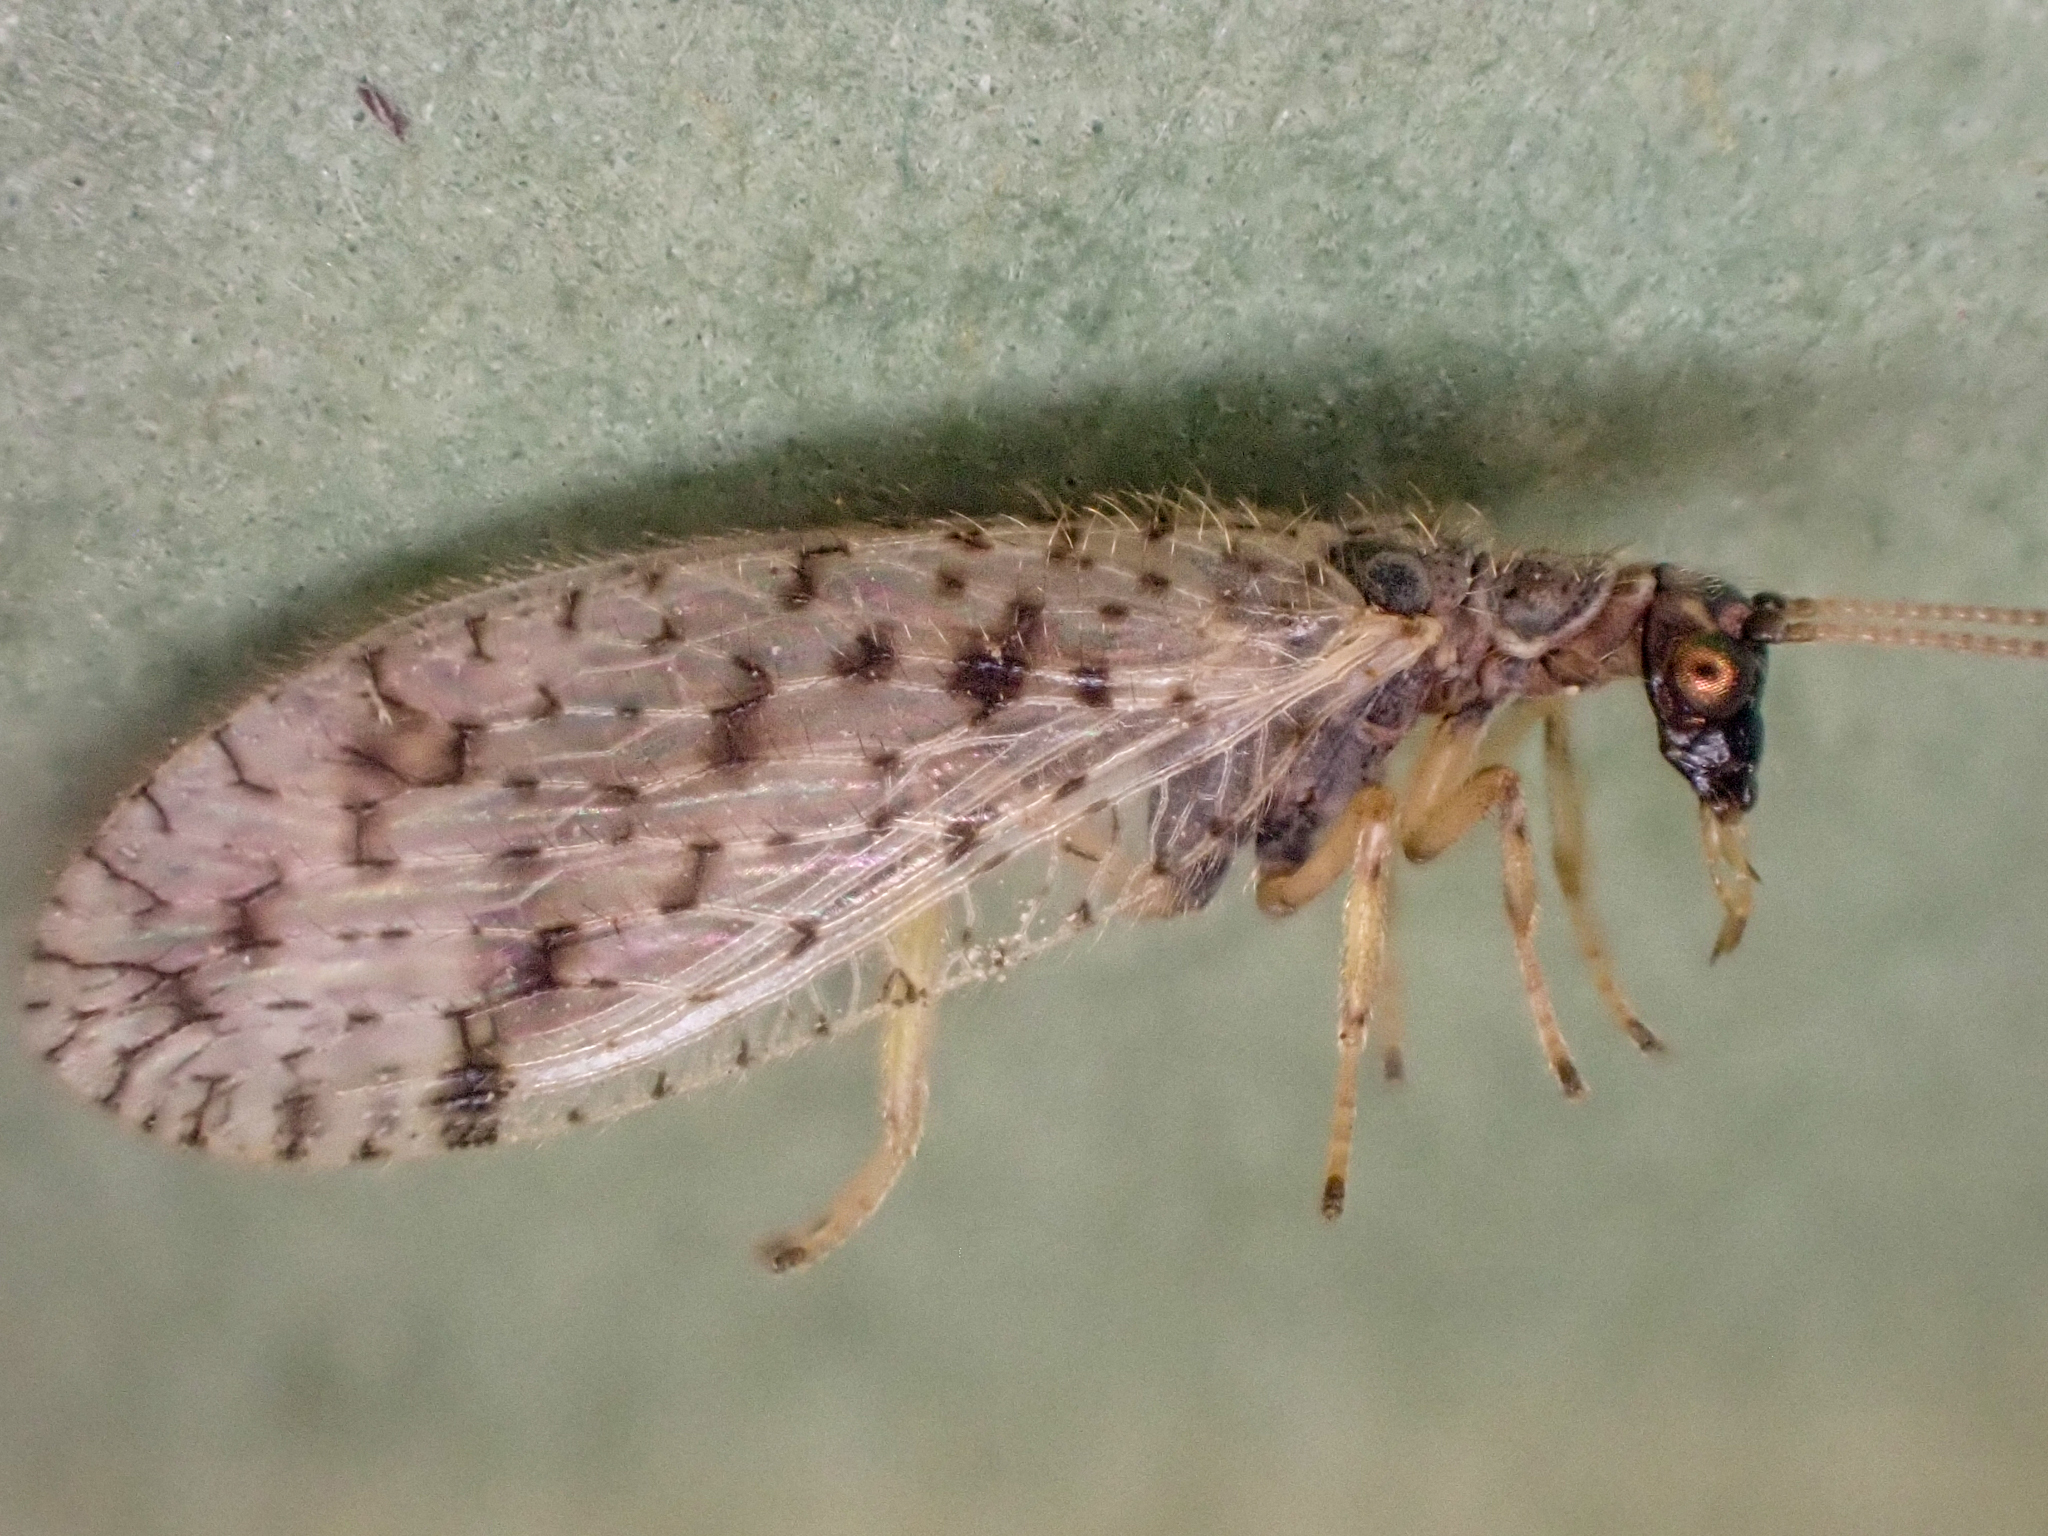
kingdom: Animalia
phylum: Arthropoda
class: Insecta
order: Neuroptera
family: Hemerobiidae
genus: Micromus
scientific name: Micromus variegatus
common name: Brown lacewing
